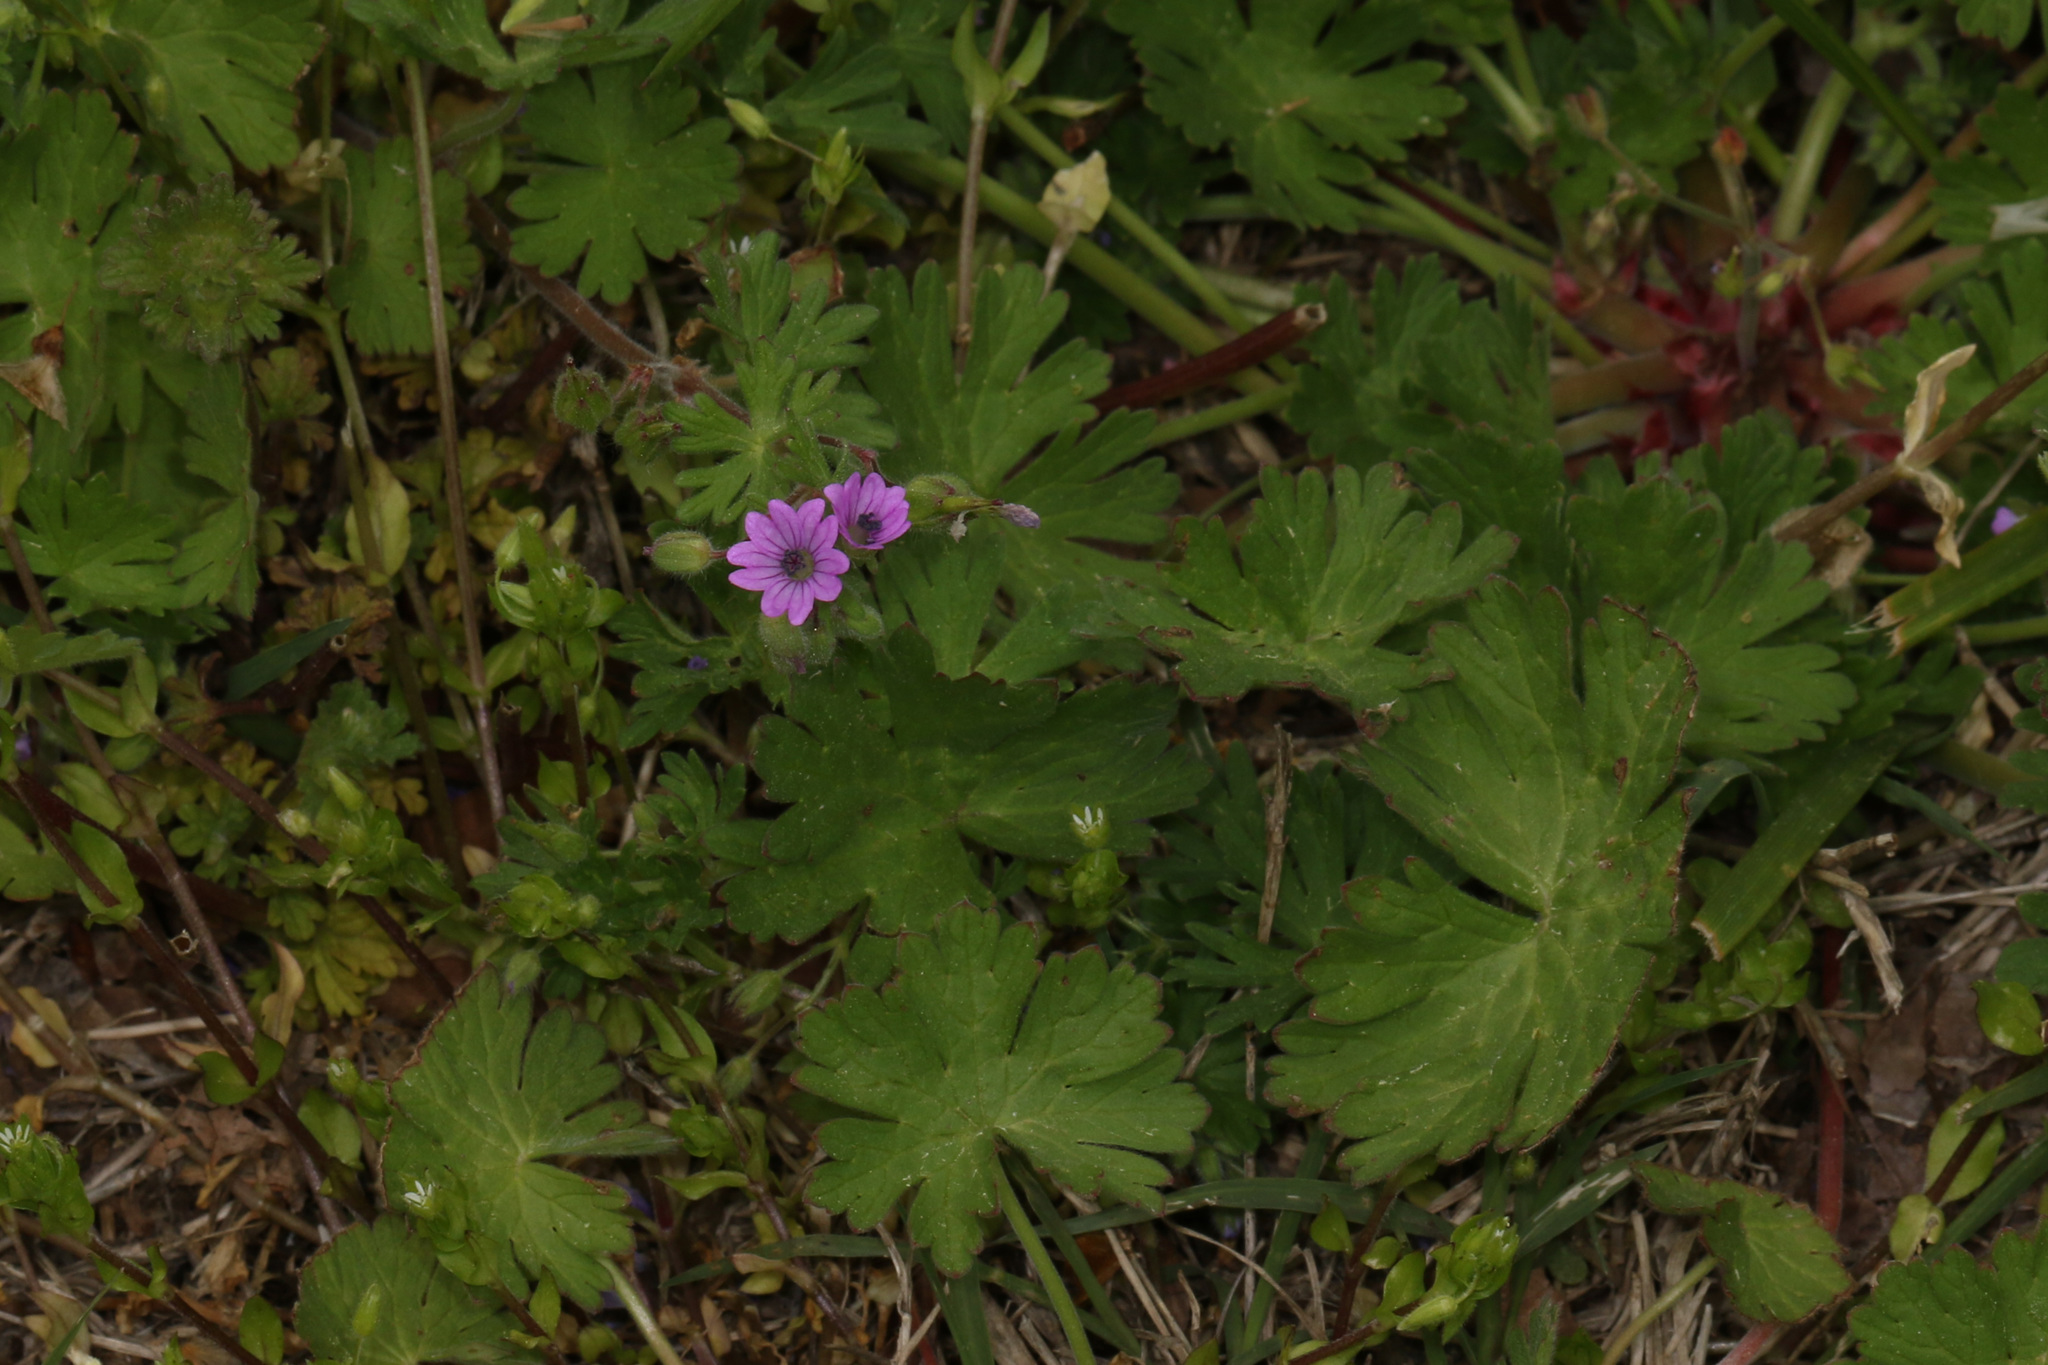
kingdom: Plantae
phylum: Tracheophyta
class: Magnoliopsida
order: Geraniales
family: Geraniaceae
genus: Geranium
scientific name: Geranium molle
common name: Dove's-foot crane's-bill
